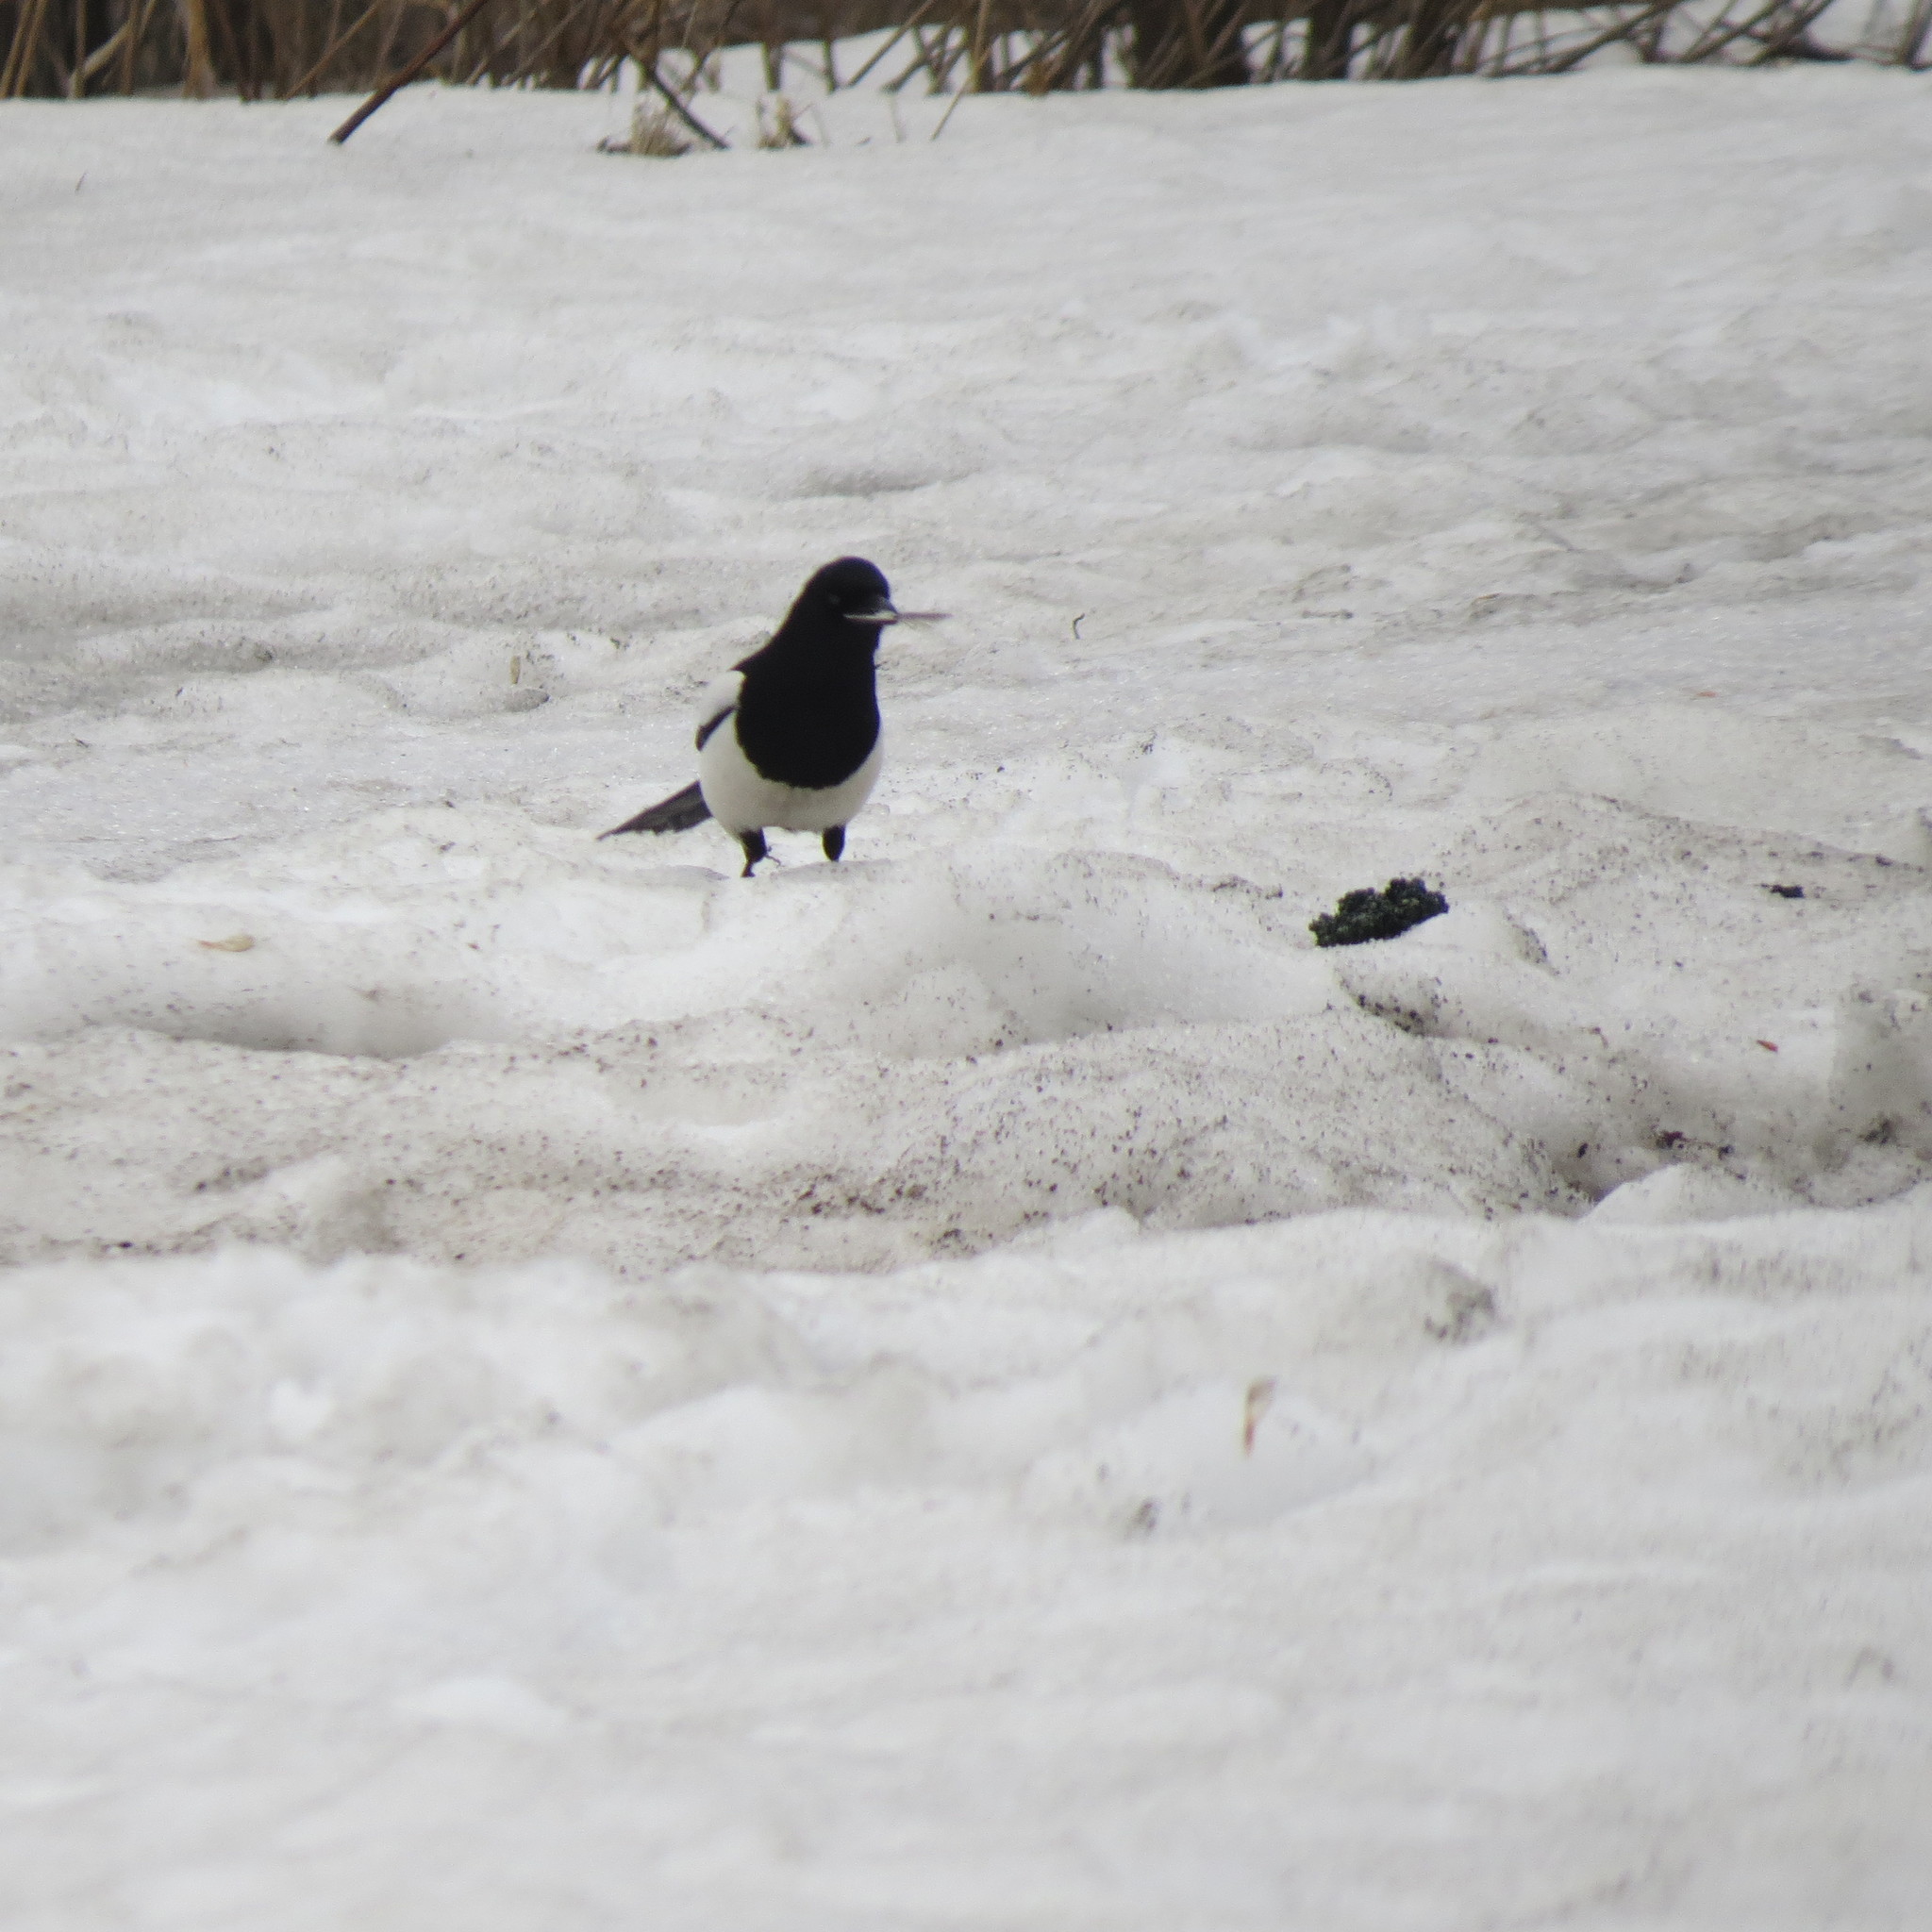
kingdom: Animalia
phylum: Chordata
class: Aves
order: Passeriformes
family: Corvidae
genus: Pica
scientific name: Pica pica
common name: Eurasian magpie
